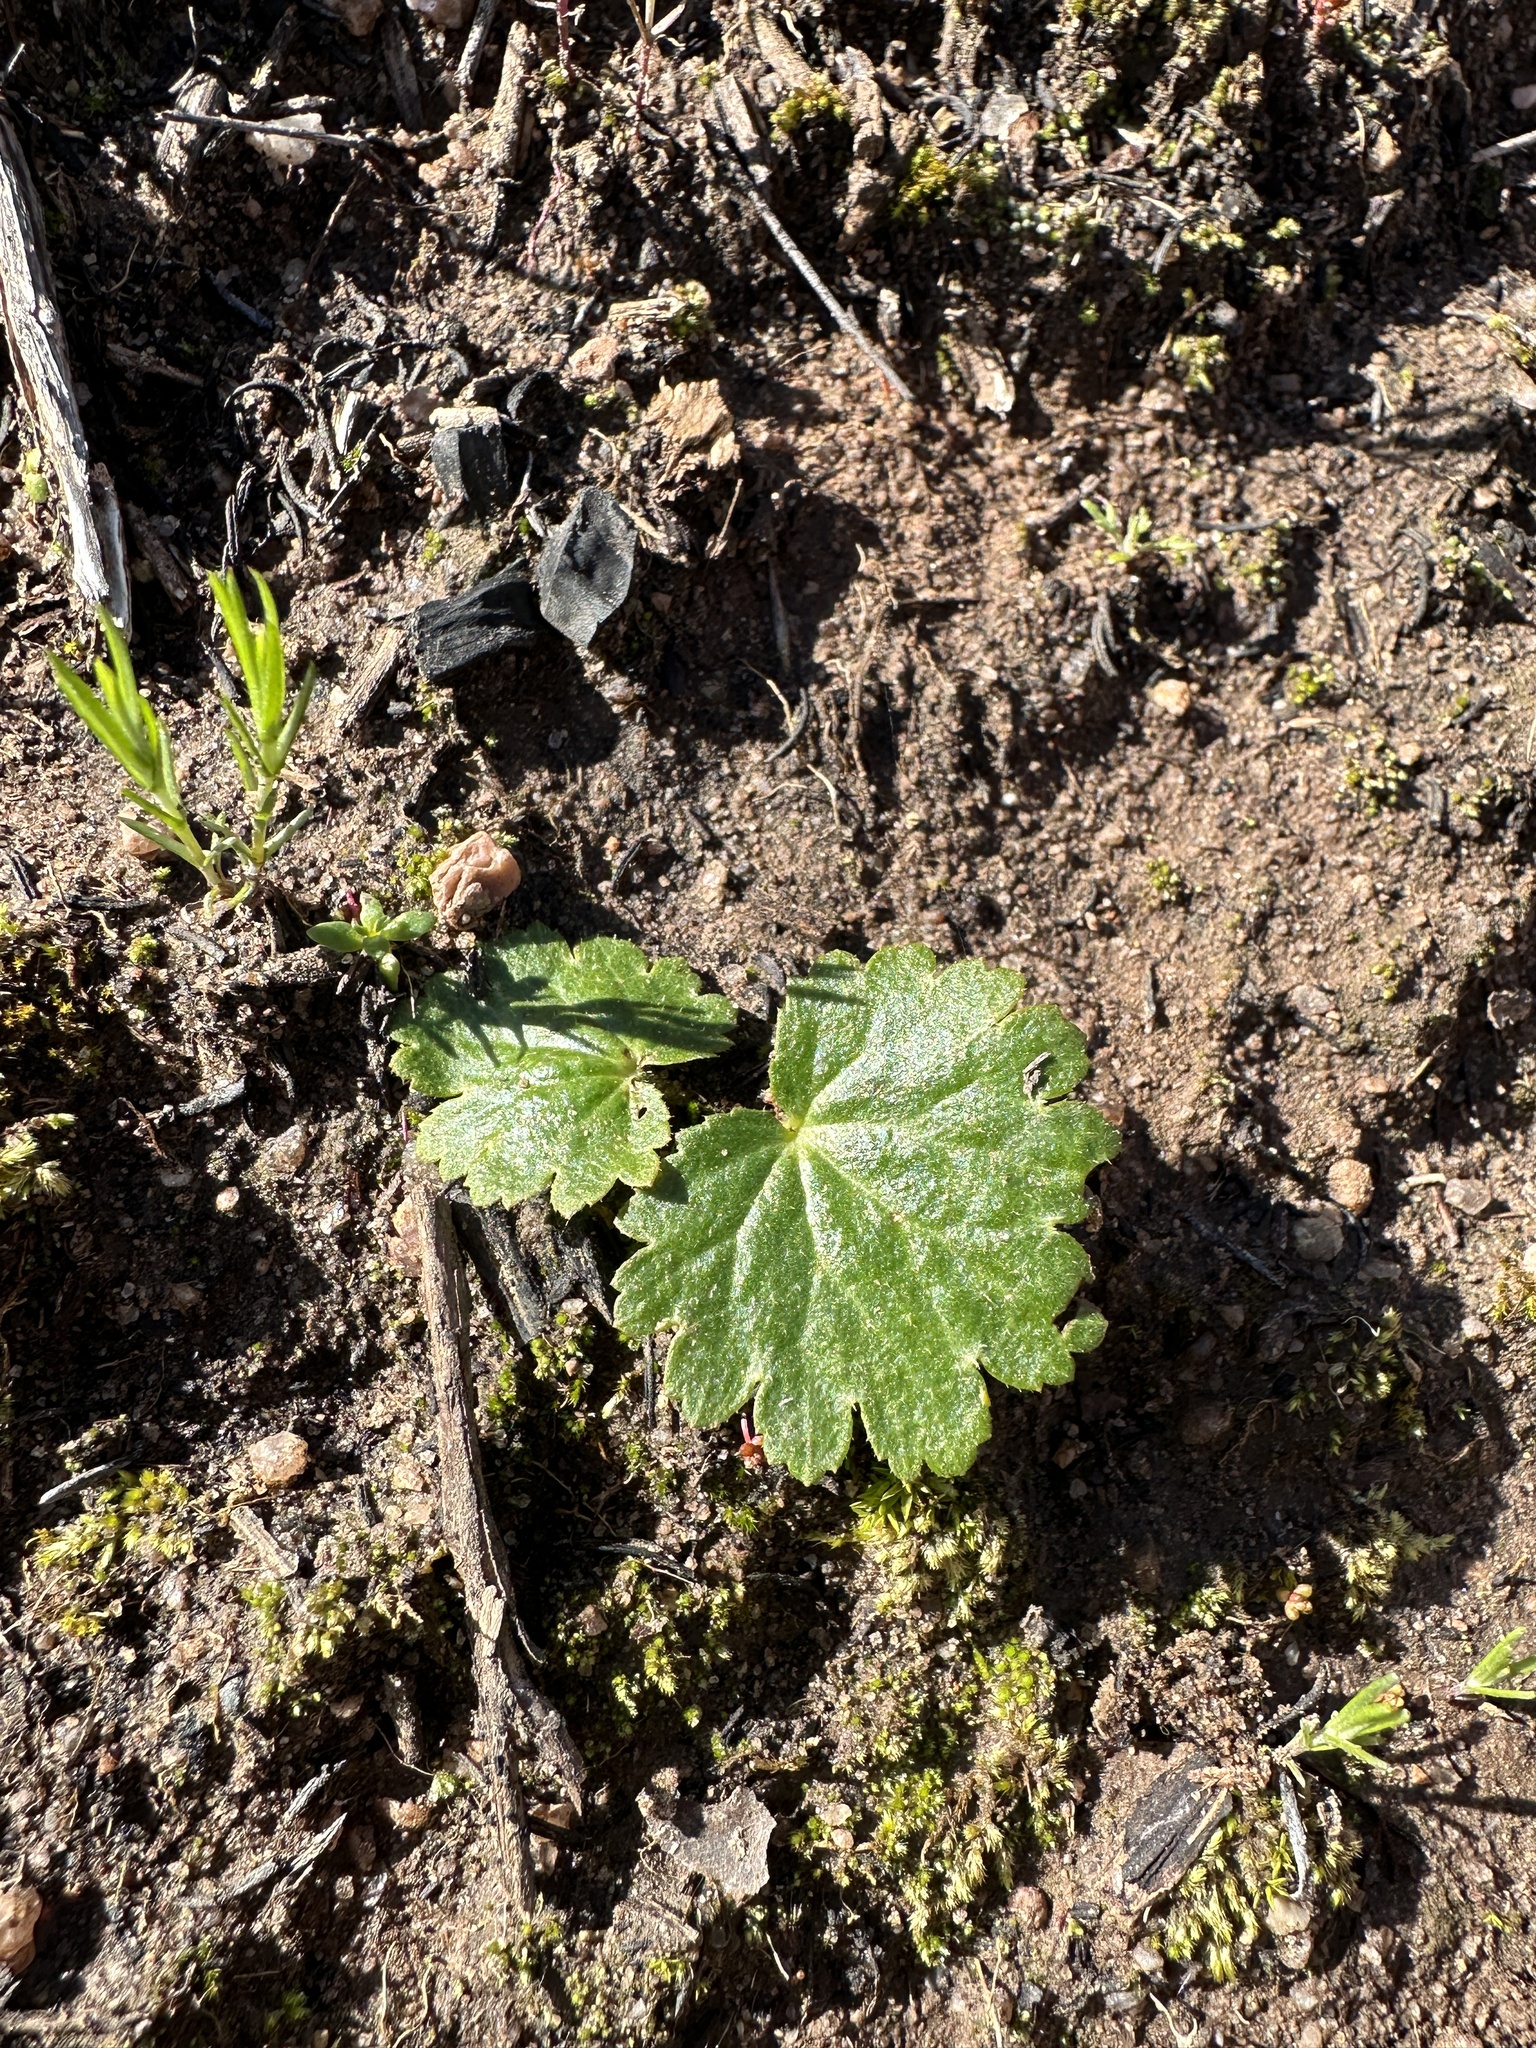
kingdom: Plantae
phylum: Tracheophyta
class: Magnoliopsida
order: Saxifragales
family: Saxifragaceae
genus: Jepsonia
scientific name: Jepsonia parryi
